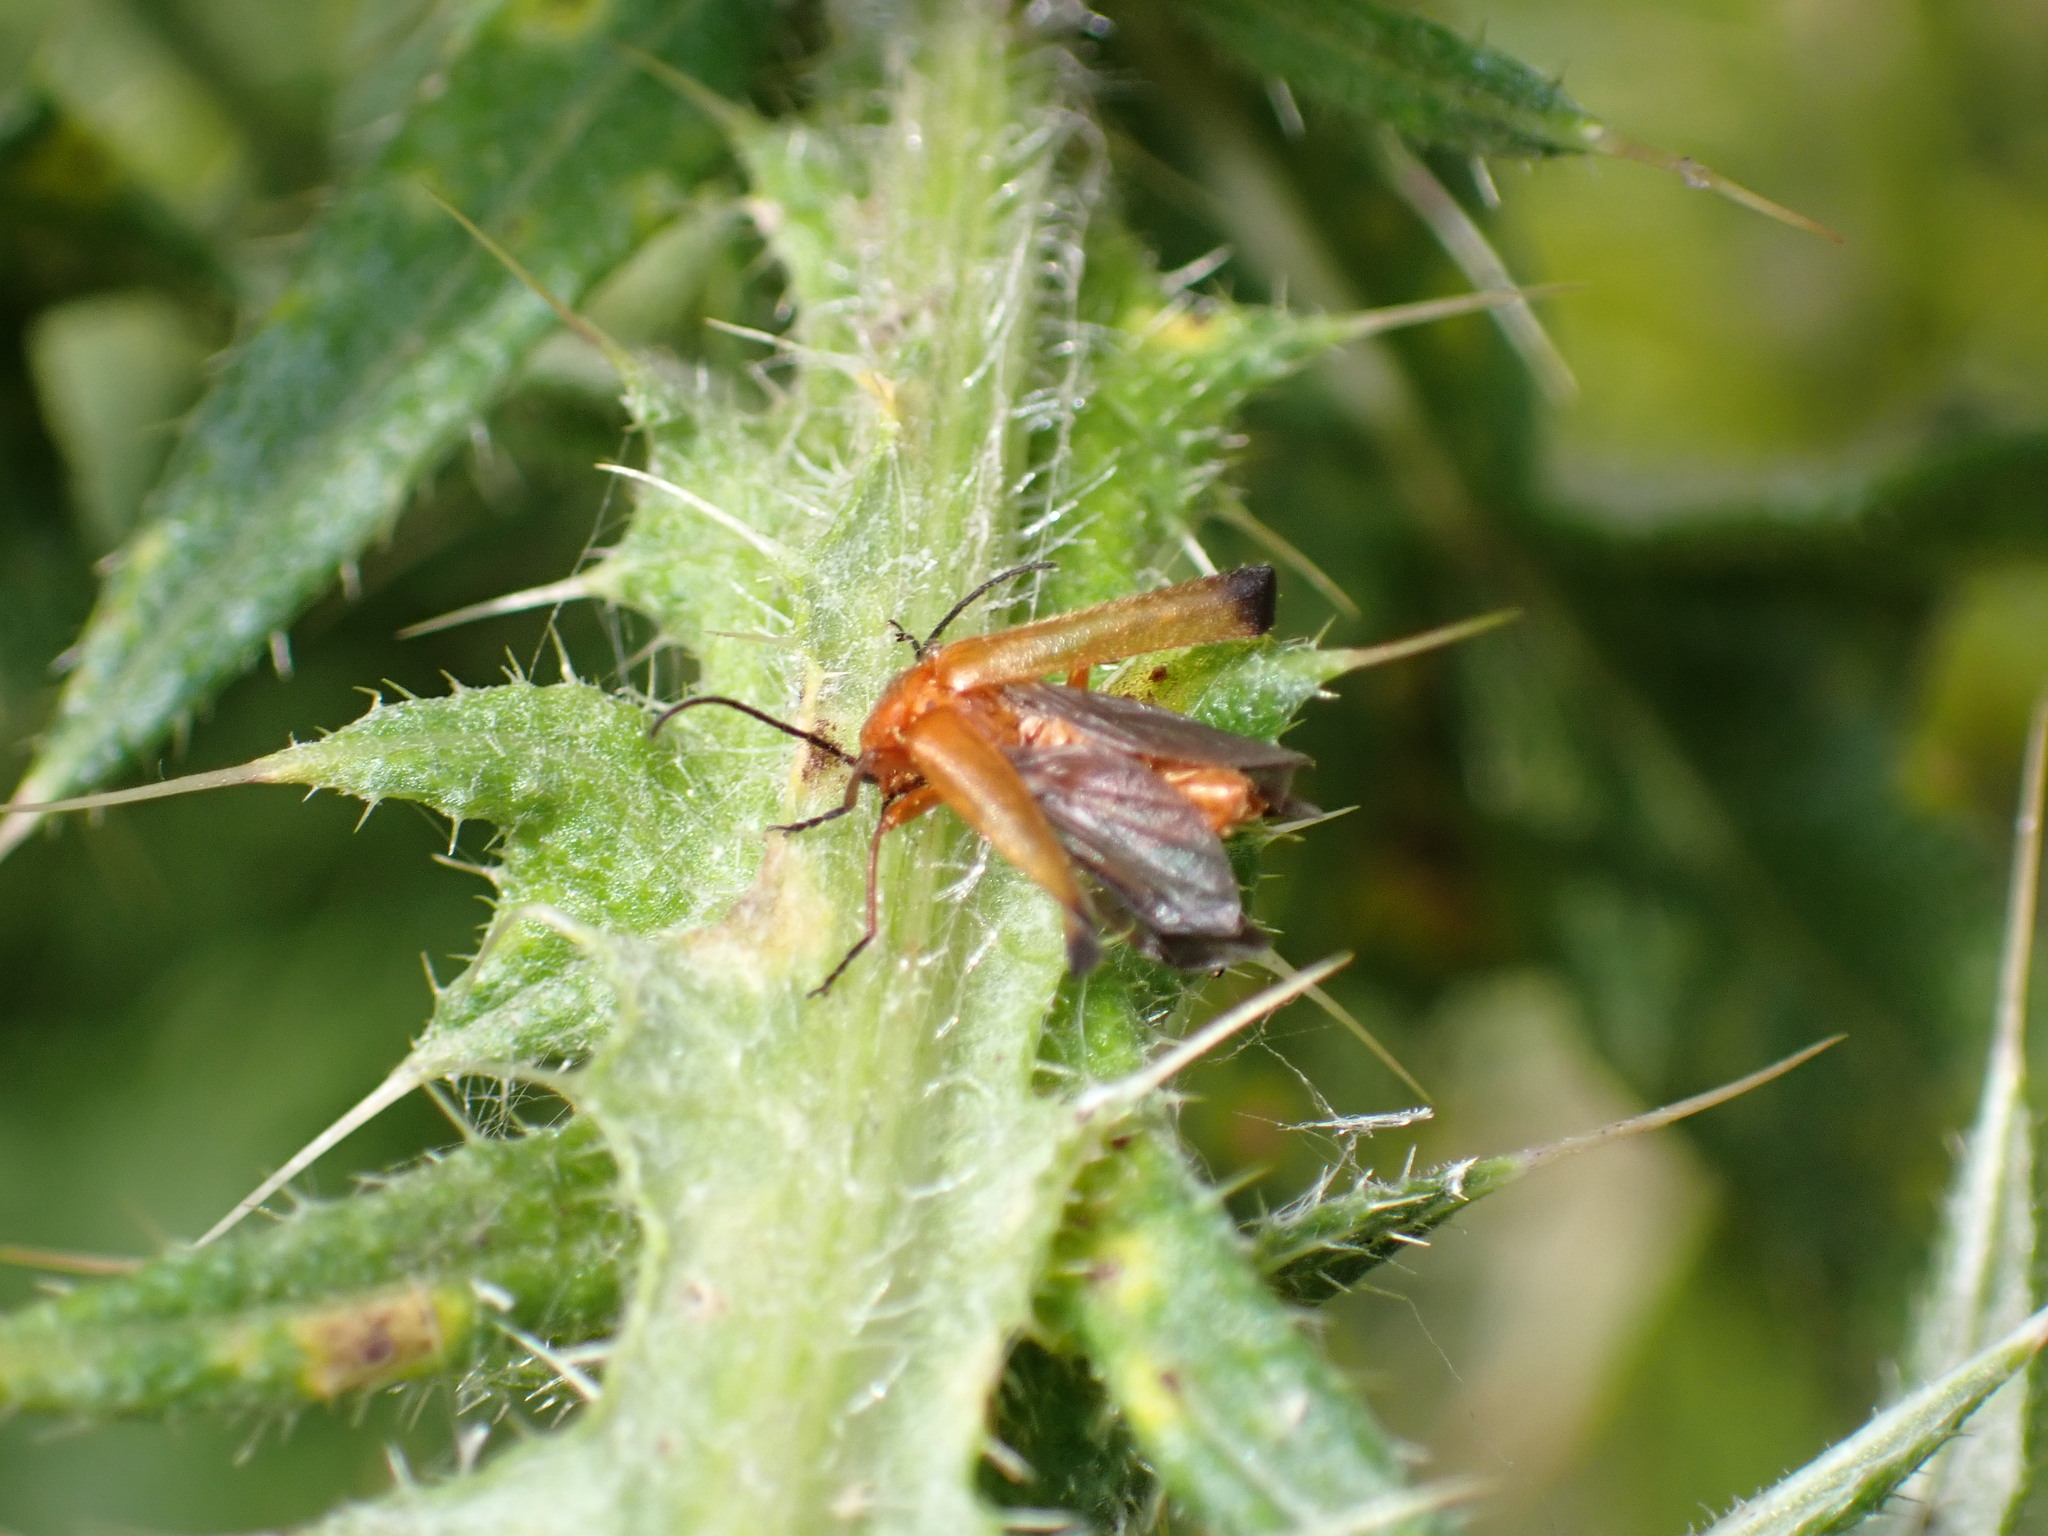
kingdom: Animalia
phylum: Arthropoda
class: Insecta
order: Coleoptera
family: Cantharidae
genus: Rhagonycha
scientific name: Rhagonycha fulva
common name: Common red soldier beetle
